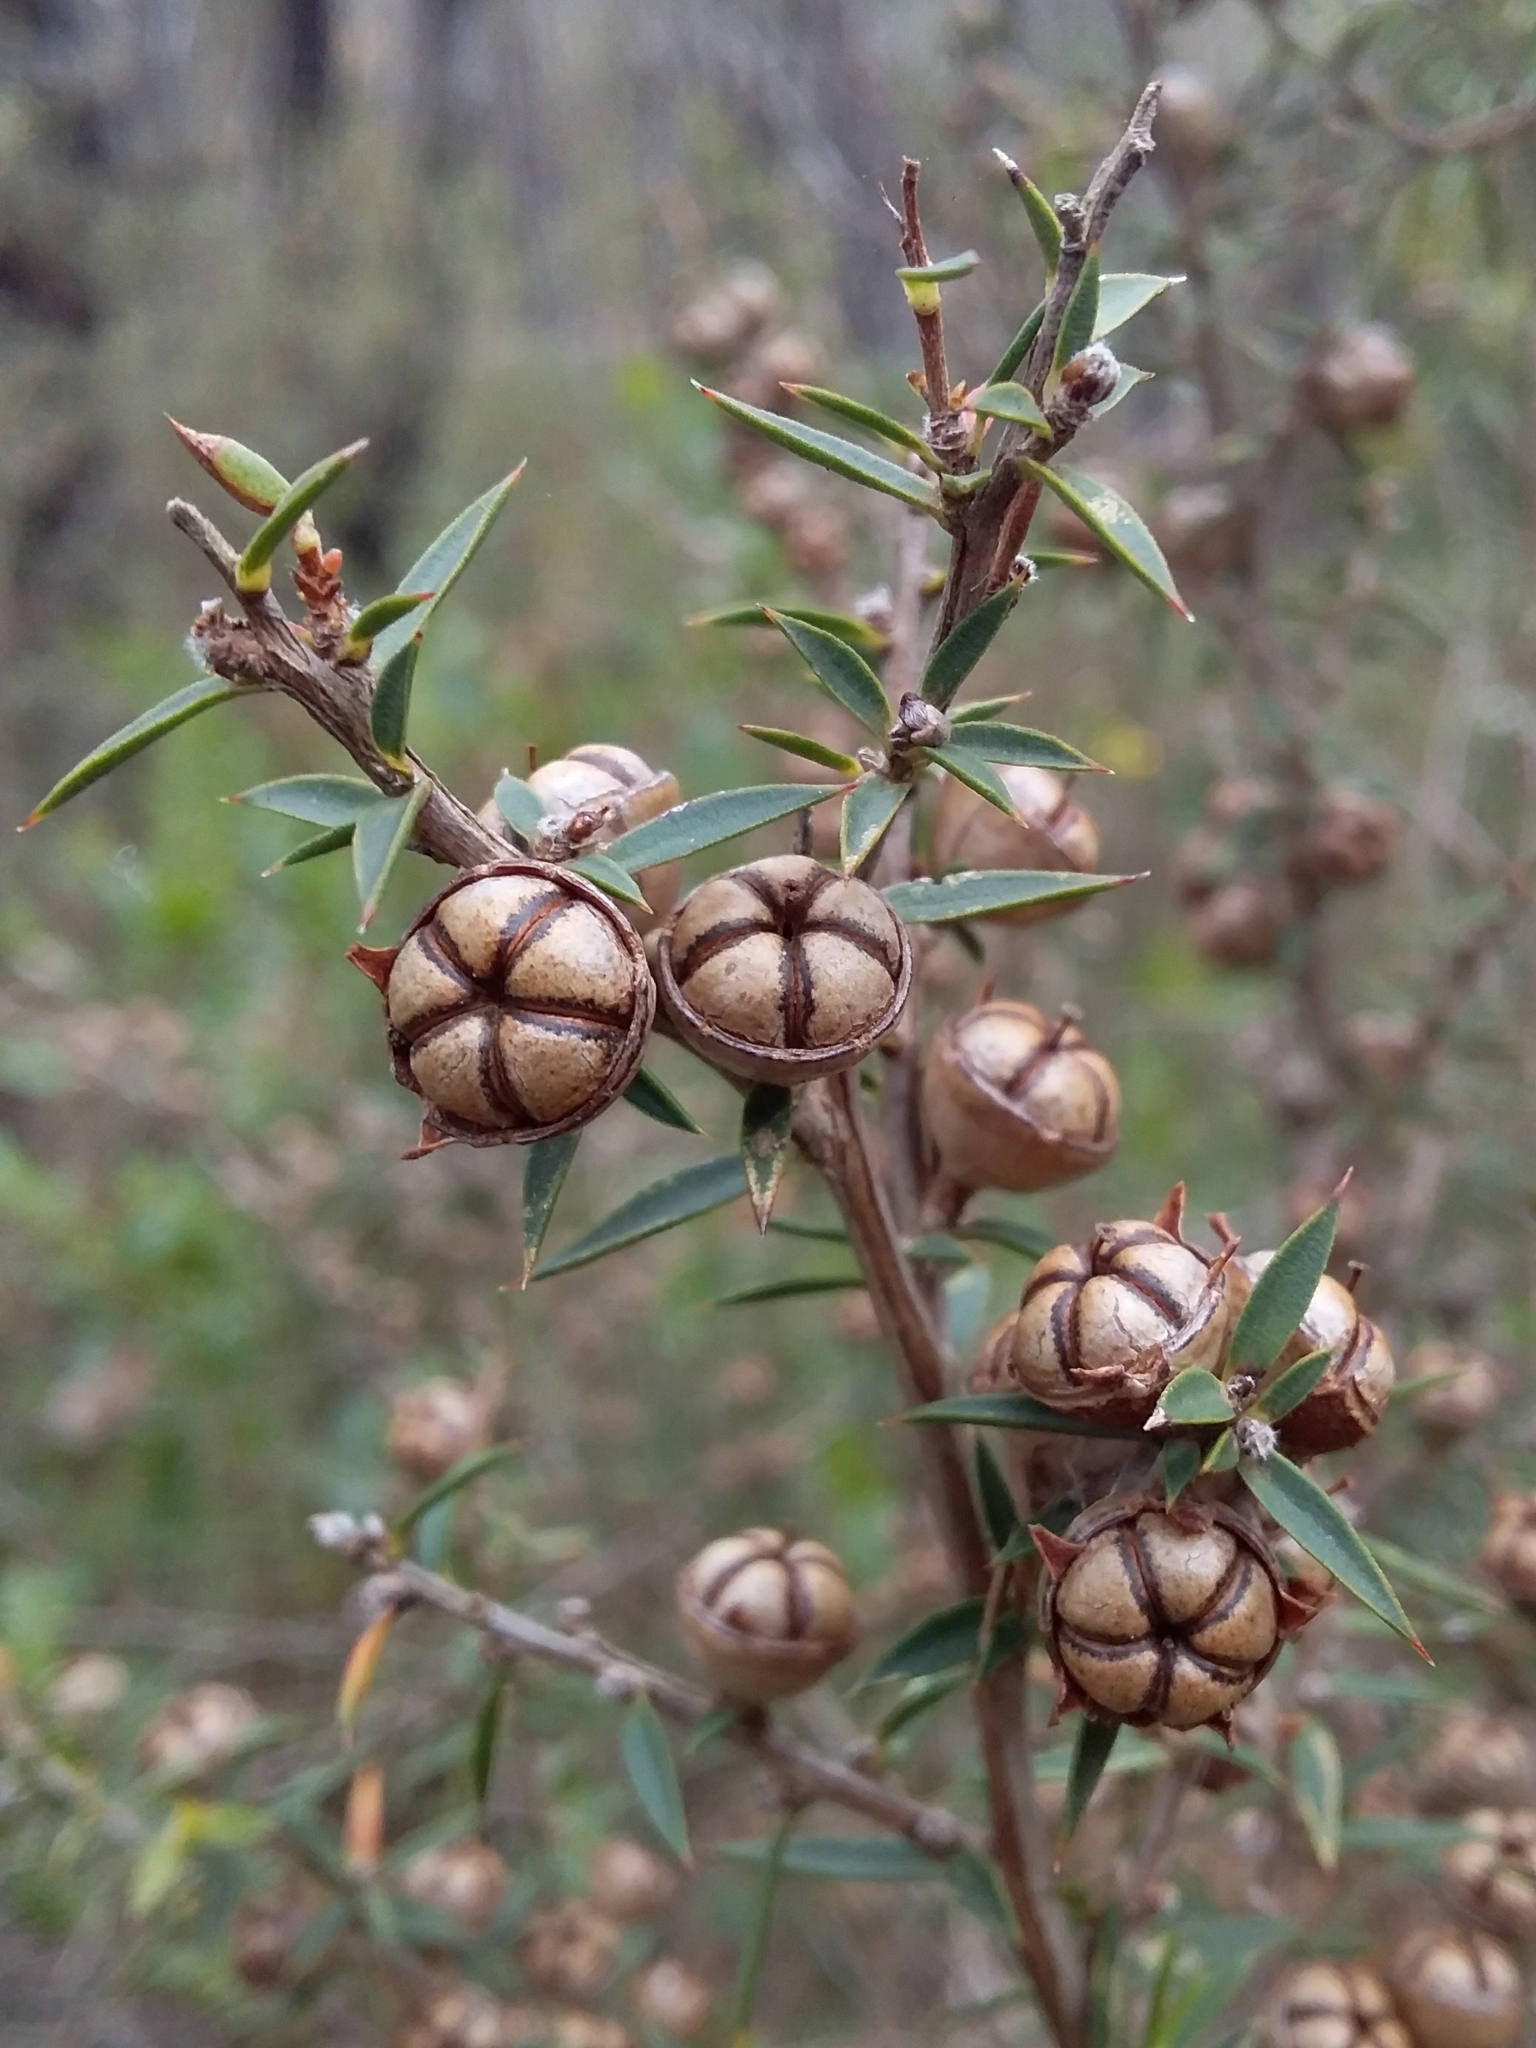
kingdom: Plantae
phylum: Tracheophyta
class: Magnoliopsida
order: Myrtales
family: Myrtaceae
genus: Leptospermum
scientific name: Leptospermum continentale
